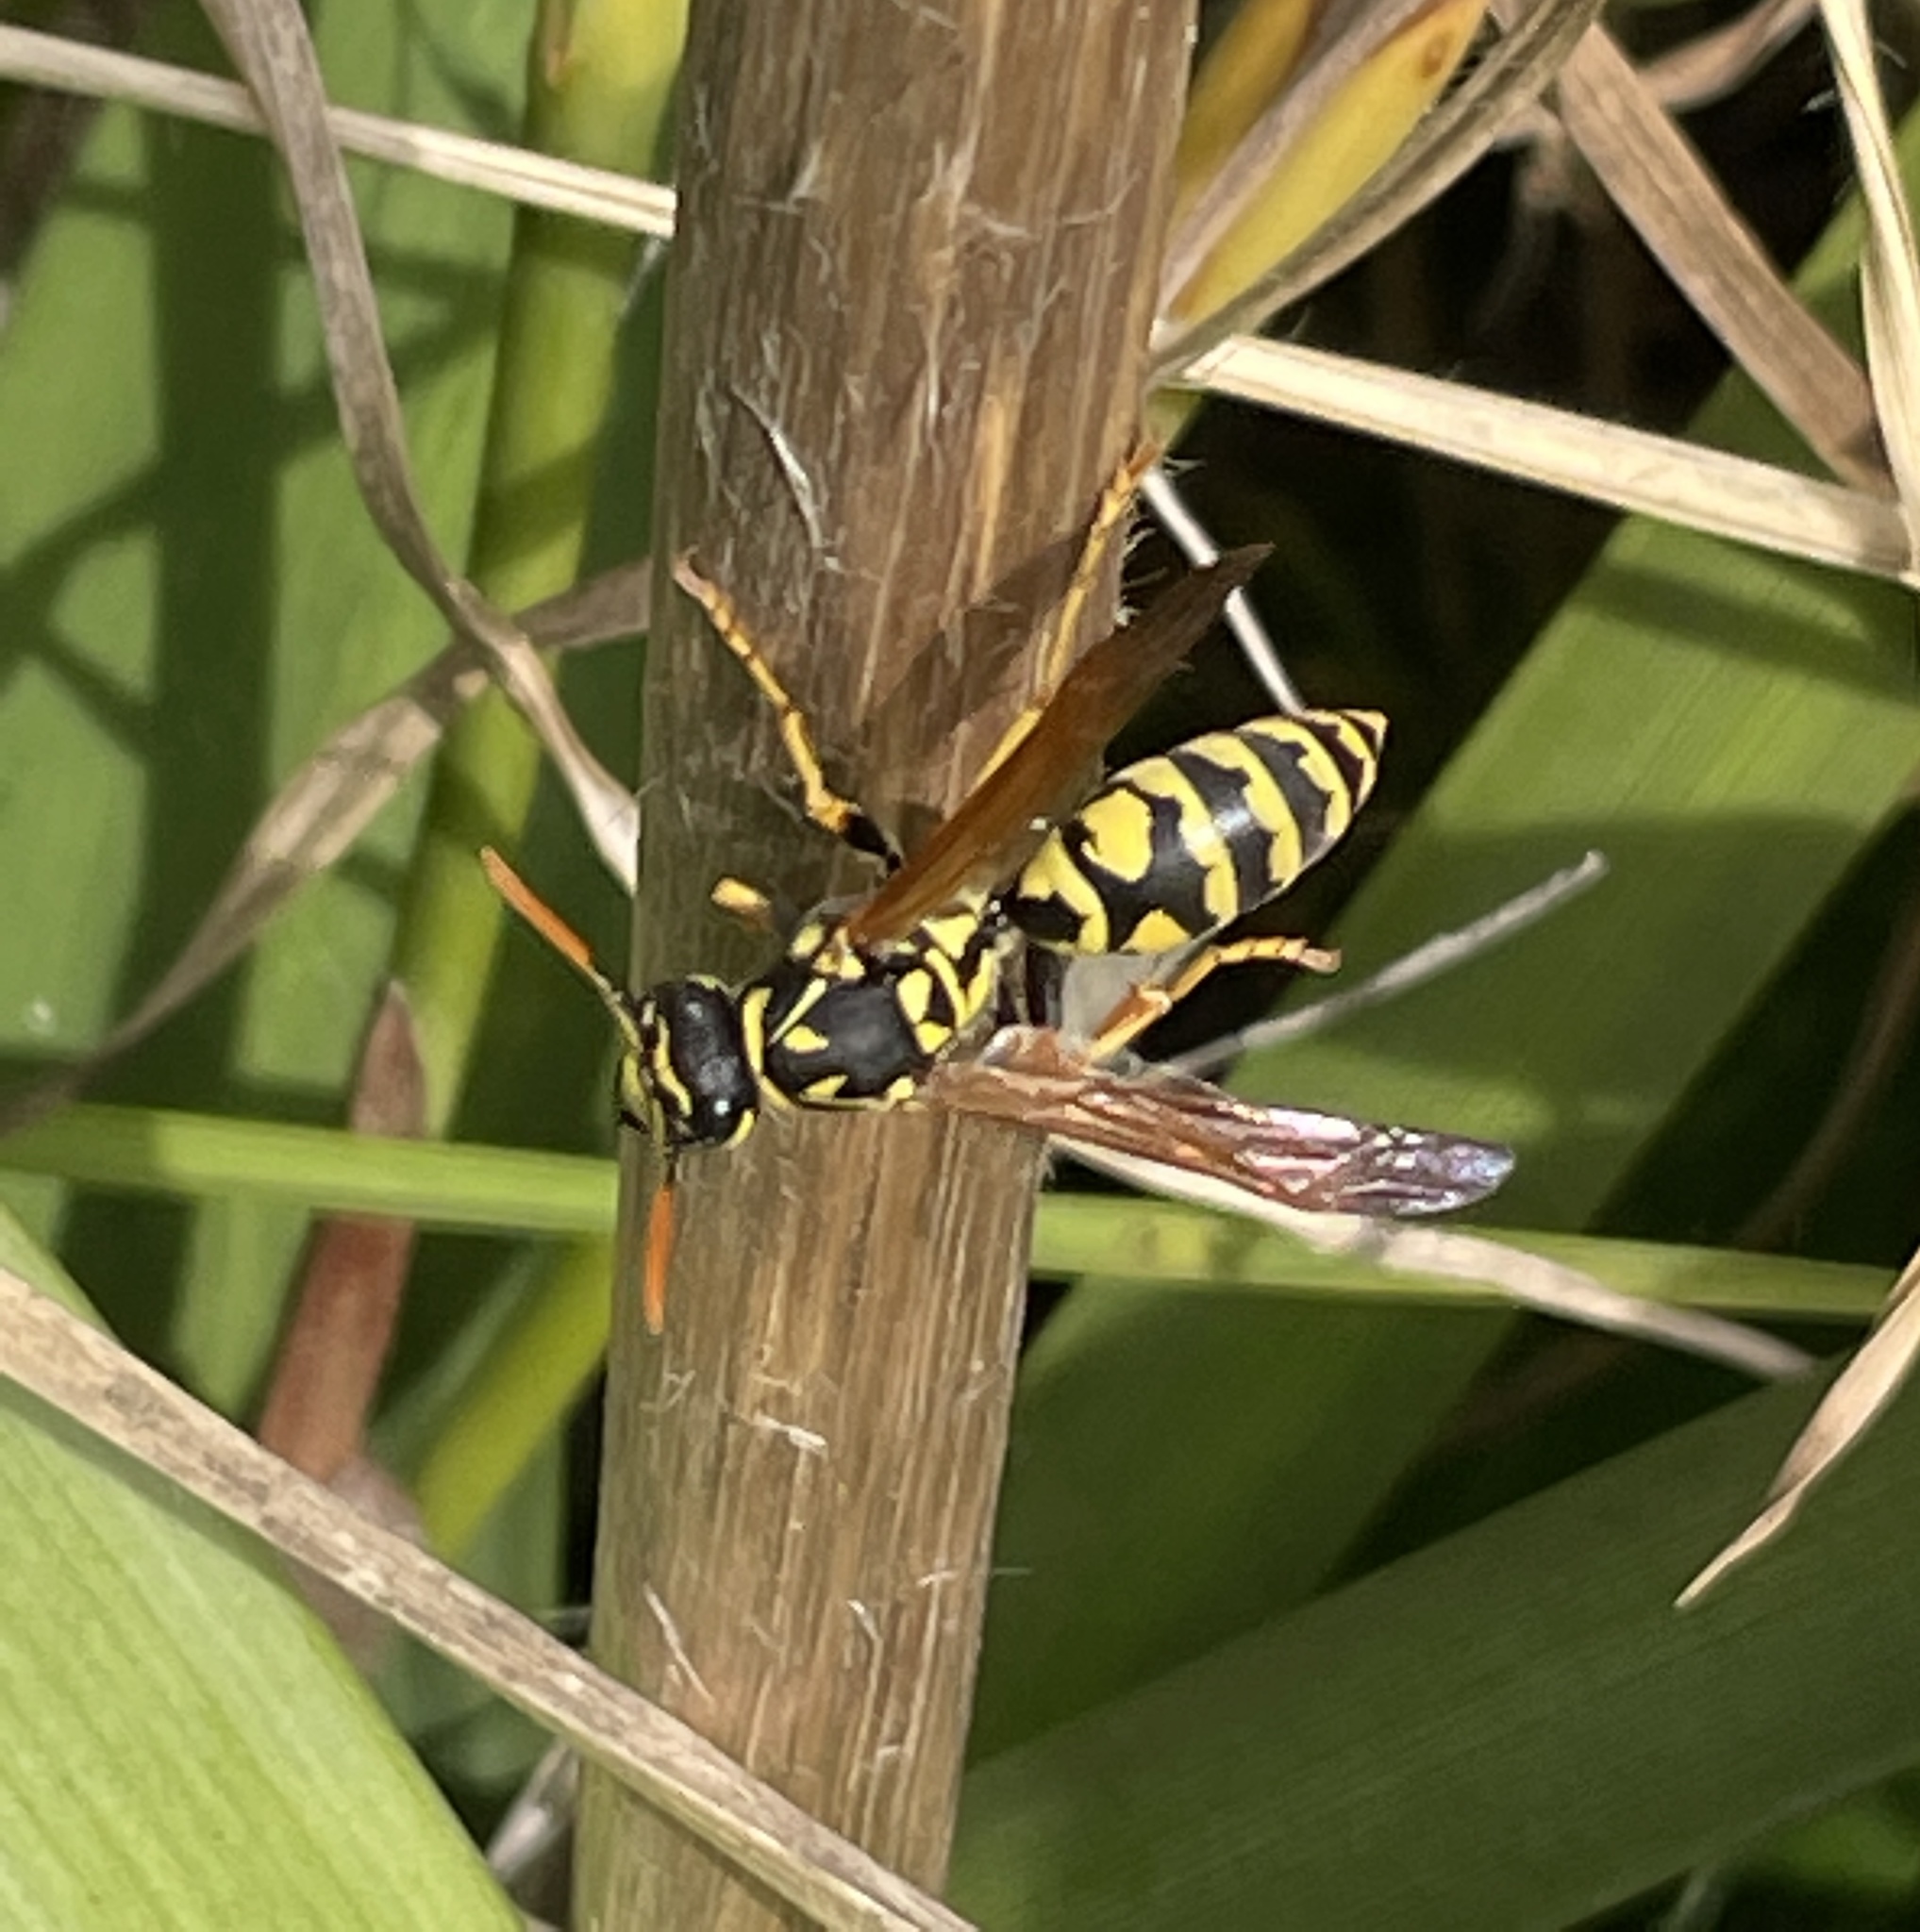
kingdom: Animalia
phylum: Arthropoda
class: Insecta
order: Hymenoptera
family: Eumenidae
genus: Polistes
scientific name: Polistes dominula
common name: Paper wasp
